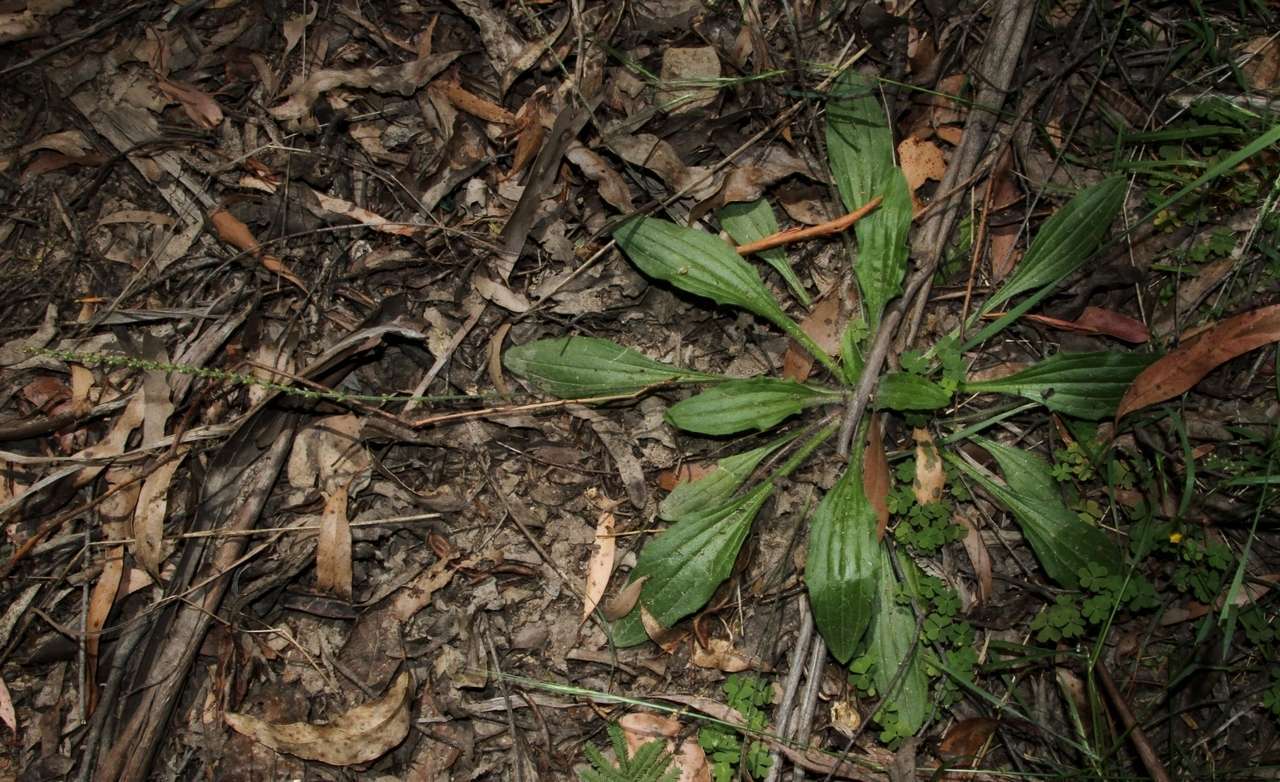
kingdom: Plantae
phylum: Tracheophyta
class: Magnoliopsida
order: Lamiales
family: Plantaginaceae
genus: Plantago
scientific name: Plantago debilis
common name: Weak plantain
